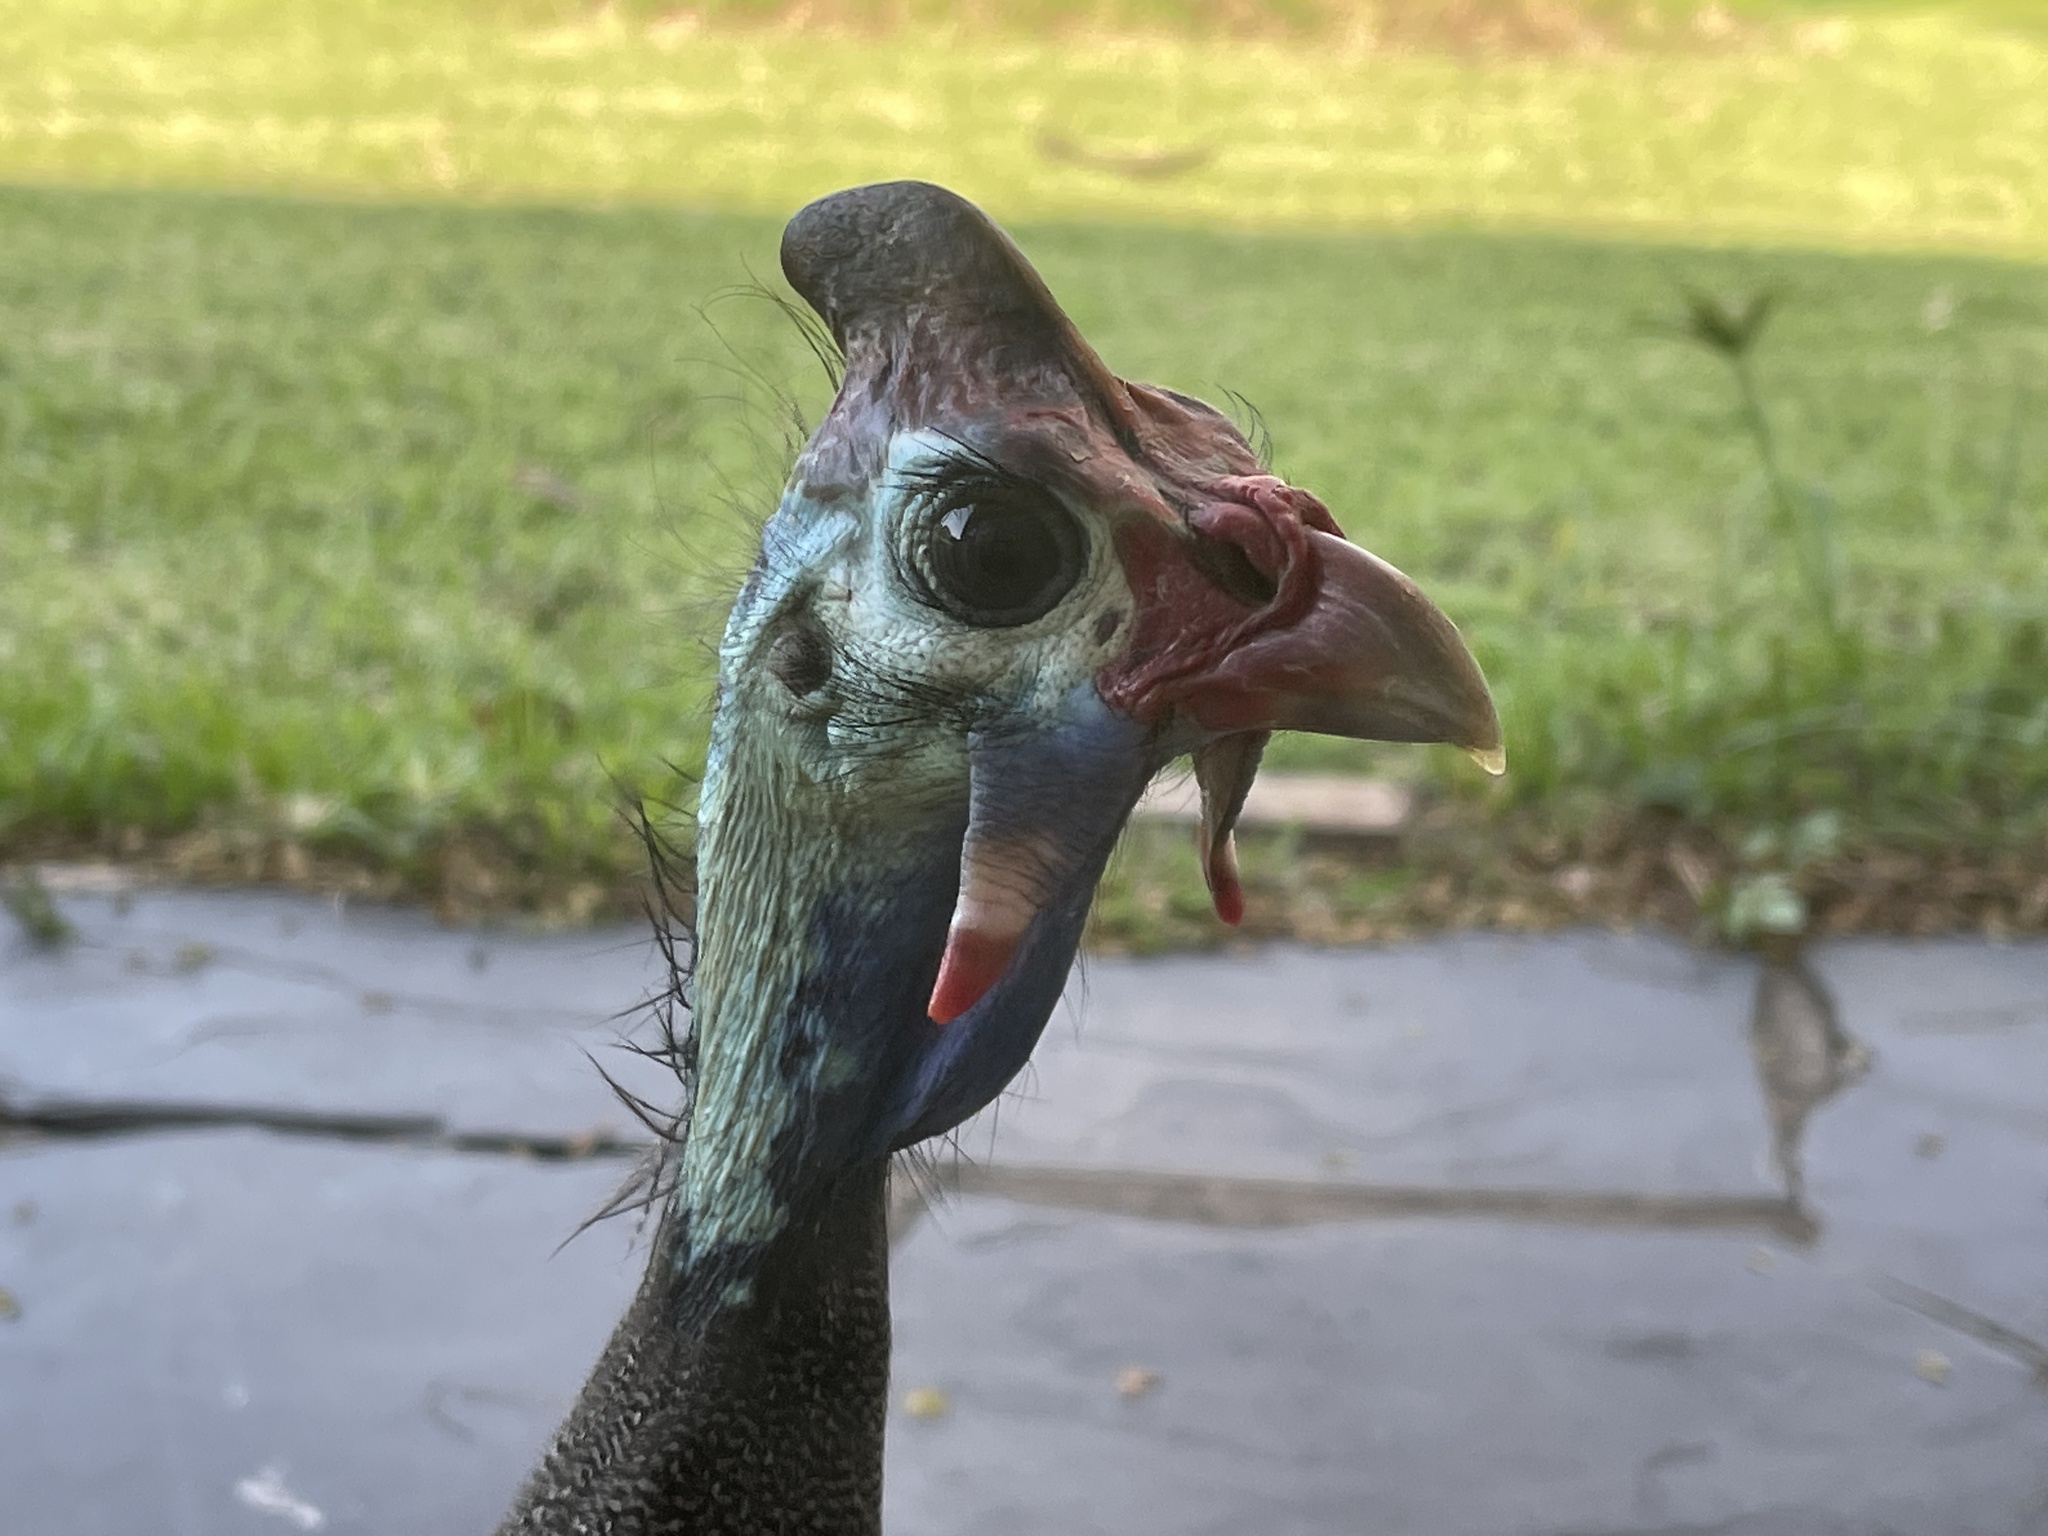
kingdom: Animalia
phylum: Chordata
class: Aves
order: Galliformes
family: Numididae
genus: Numida
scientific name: Numida meleagris
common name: Helmeted guineafowl
